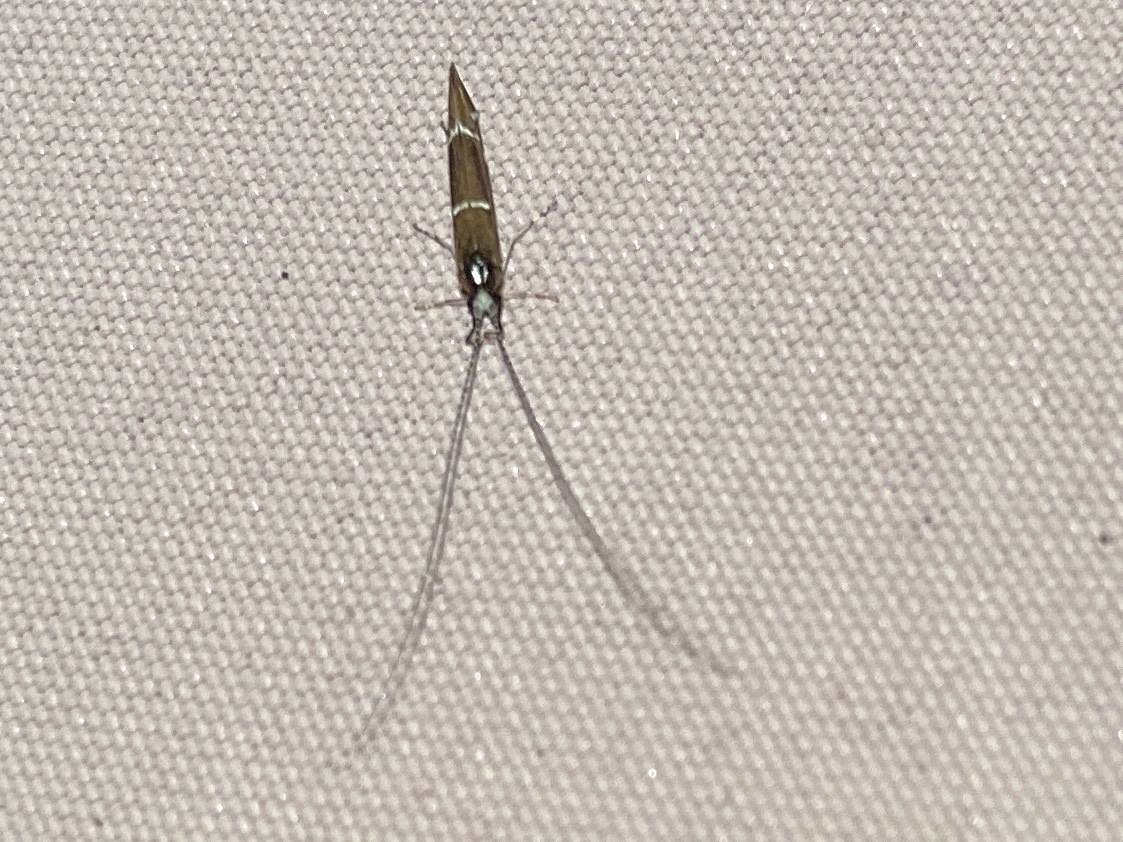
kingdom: Animalia
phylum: Arthropoda
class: Insecta
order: Trichoptera
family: Leptoceridae
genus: Athripsodes
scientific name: Athripsodes albifrons
